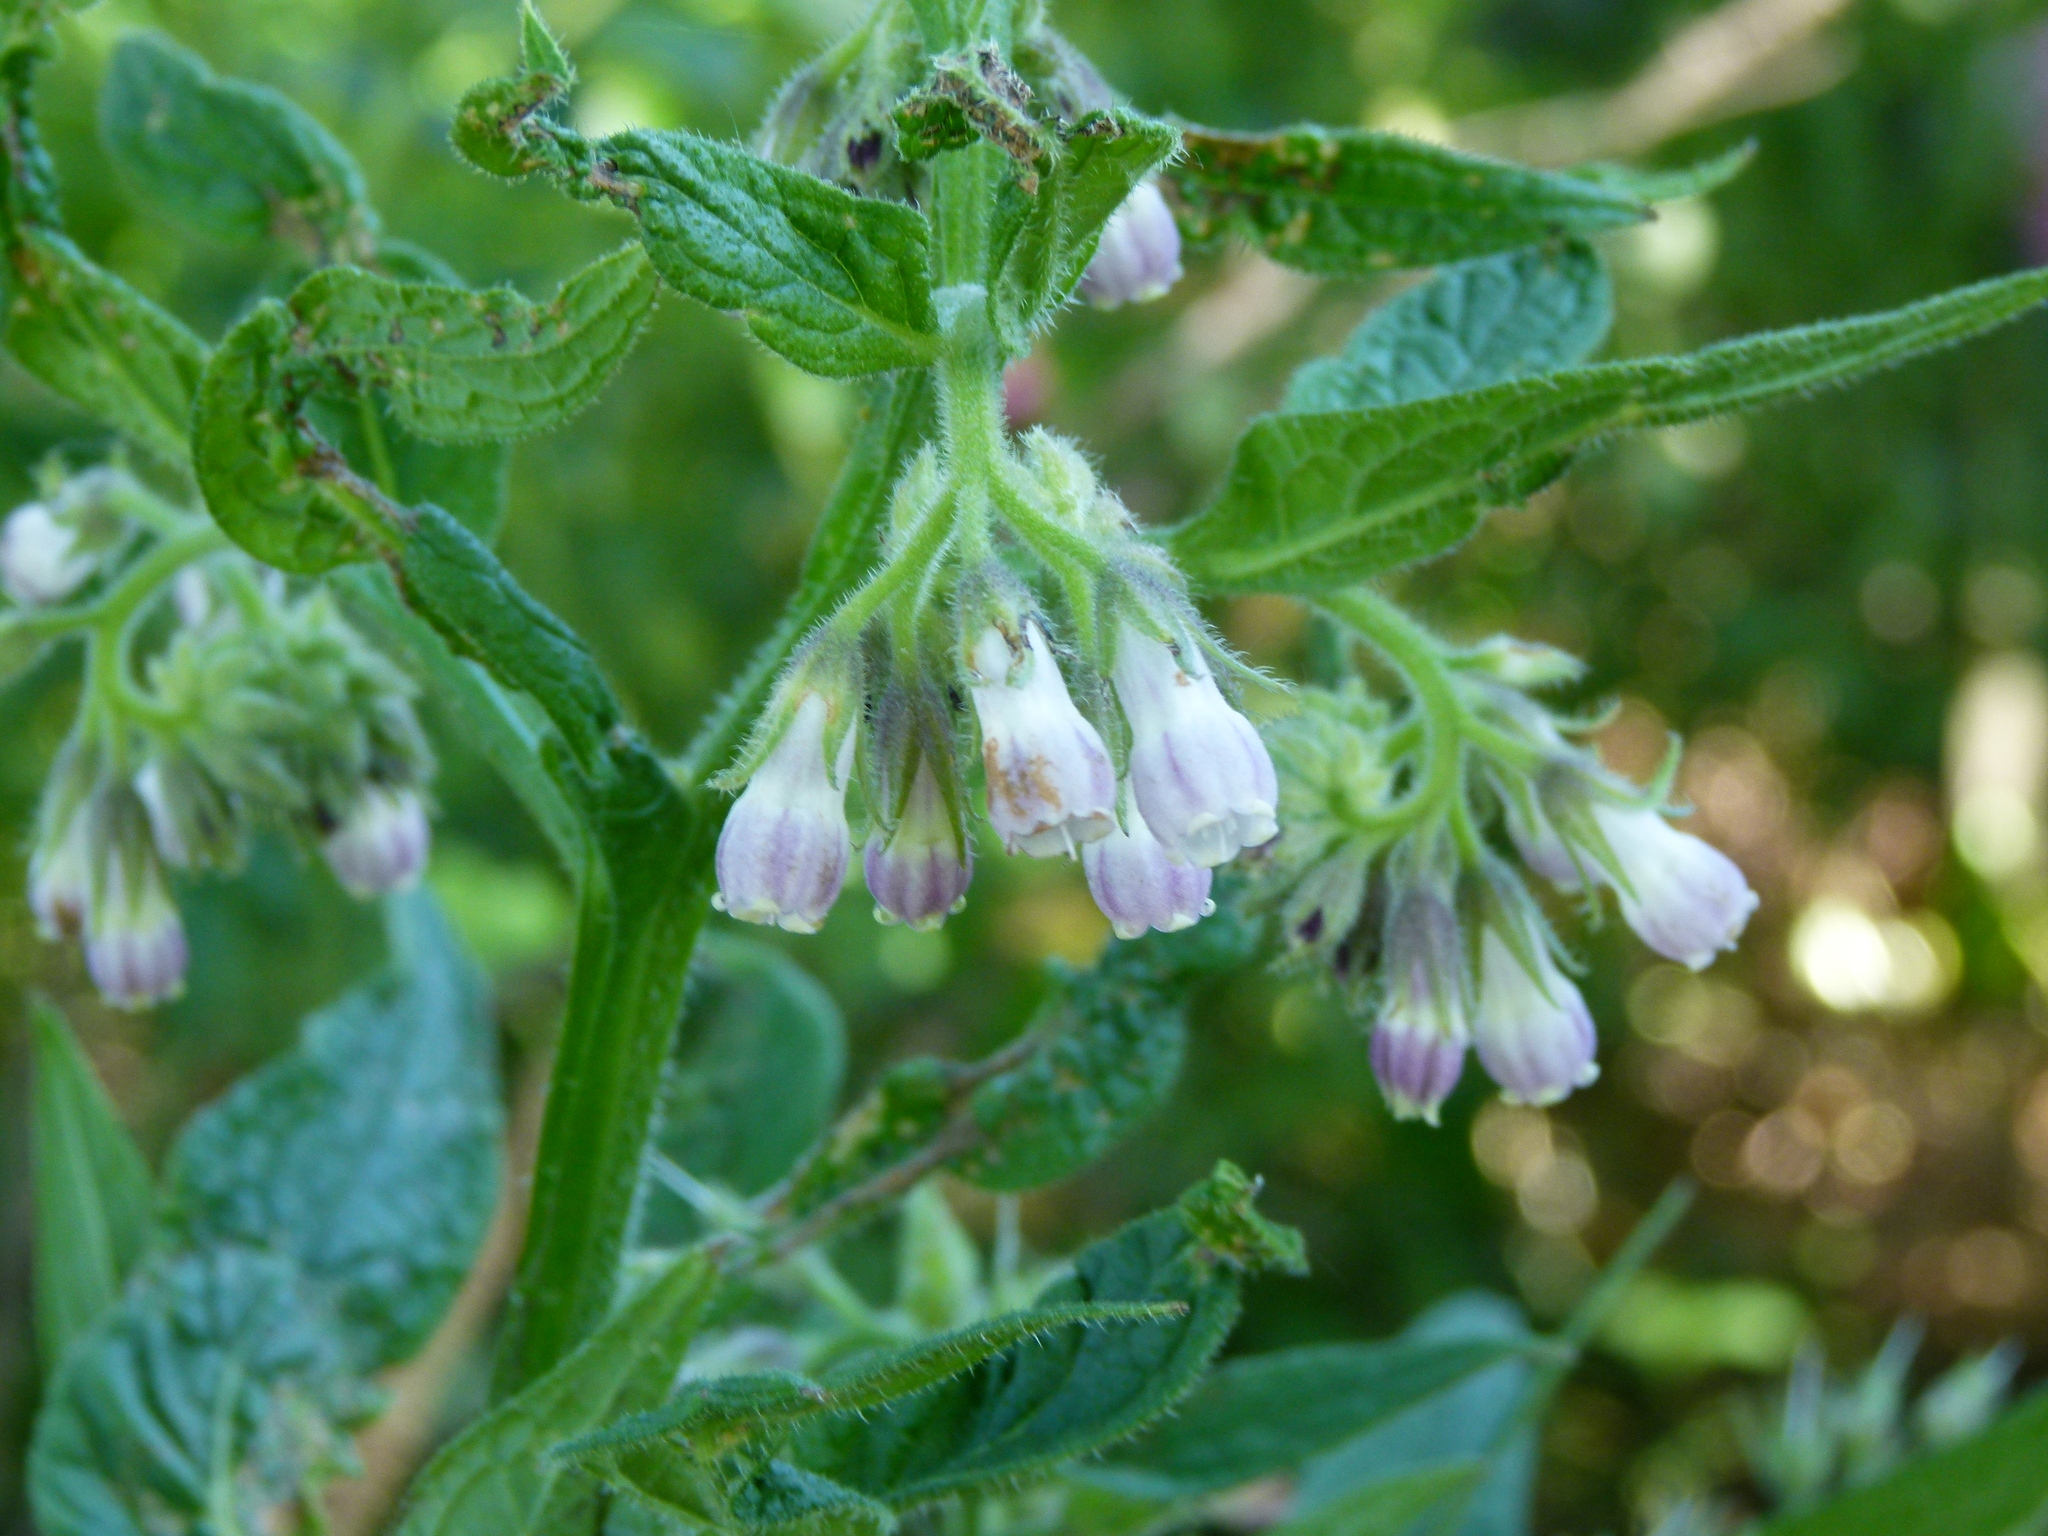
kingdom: Plantae
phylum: Tracheophyta
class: Magnoliopsida
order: Boraginales
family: Boraginaceae
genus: Symphytum
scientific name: Symphytum officinale
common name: Common comfrey
